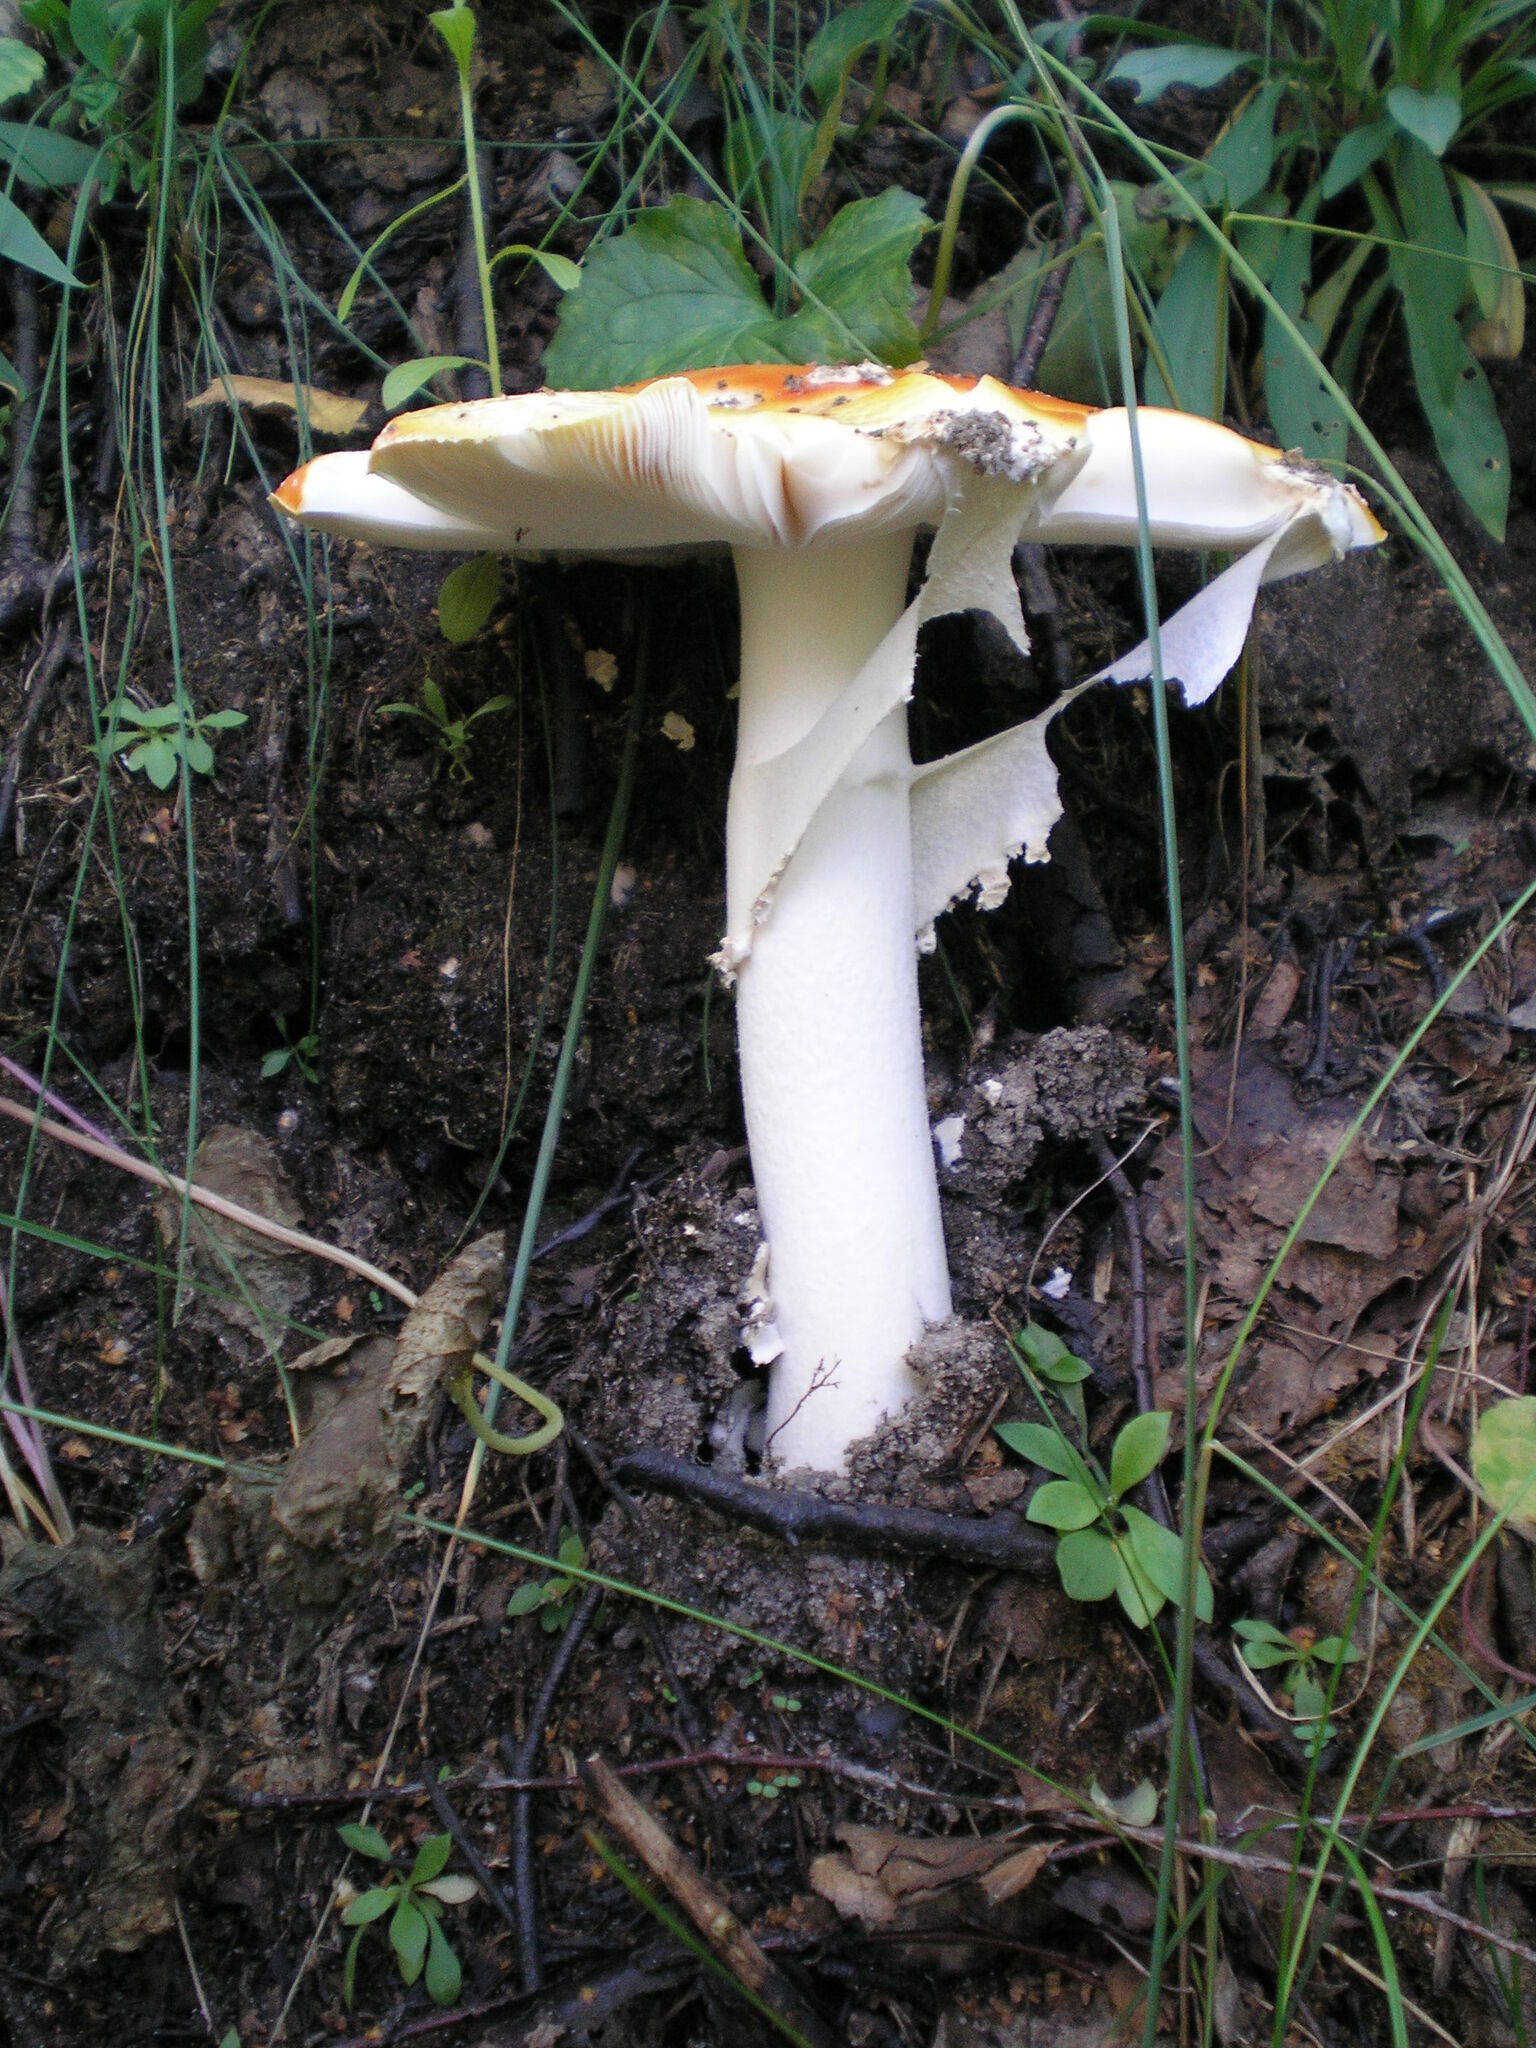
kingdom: Fungi
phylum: Basidiomycota
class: Agaricomycetes
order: Agaricales
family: Amanitaceae
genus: Amanita
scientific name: Amanita muscaria
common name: Fly agaric
